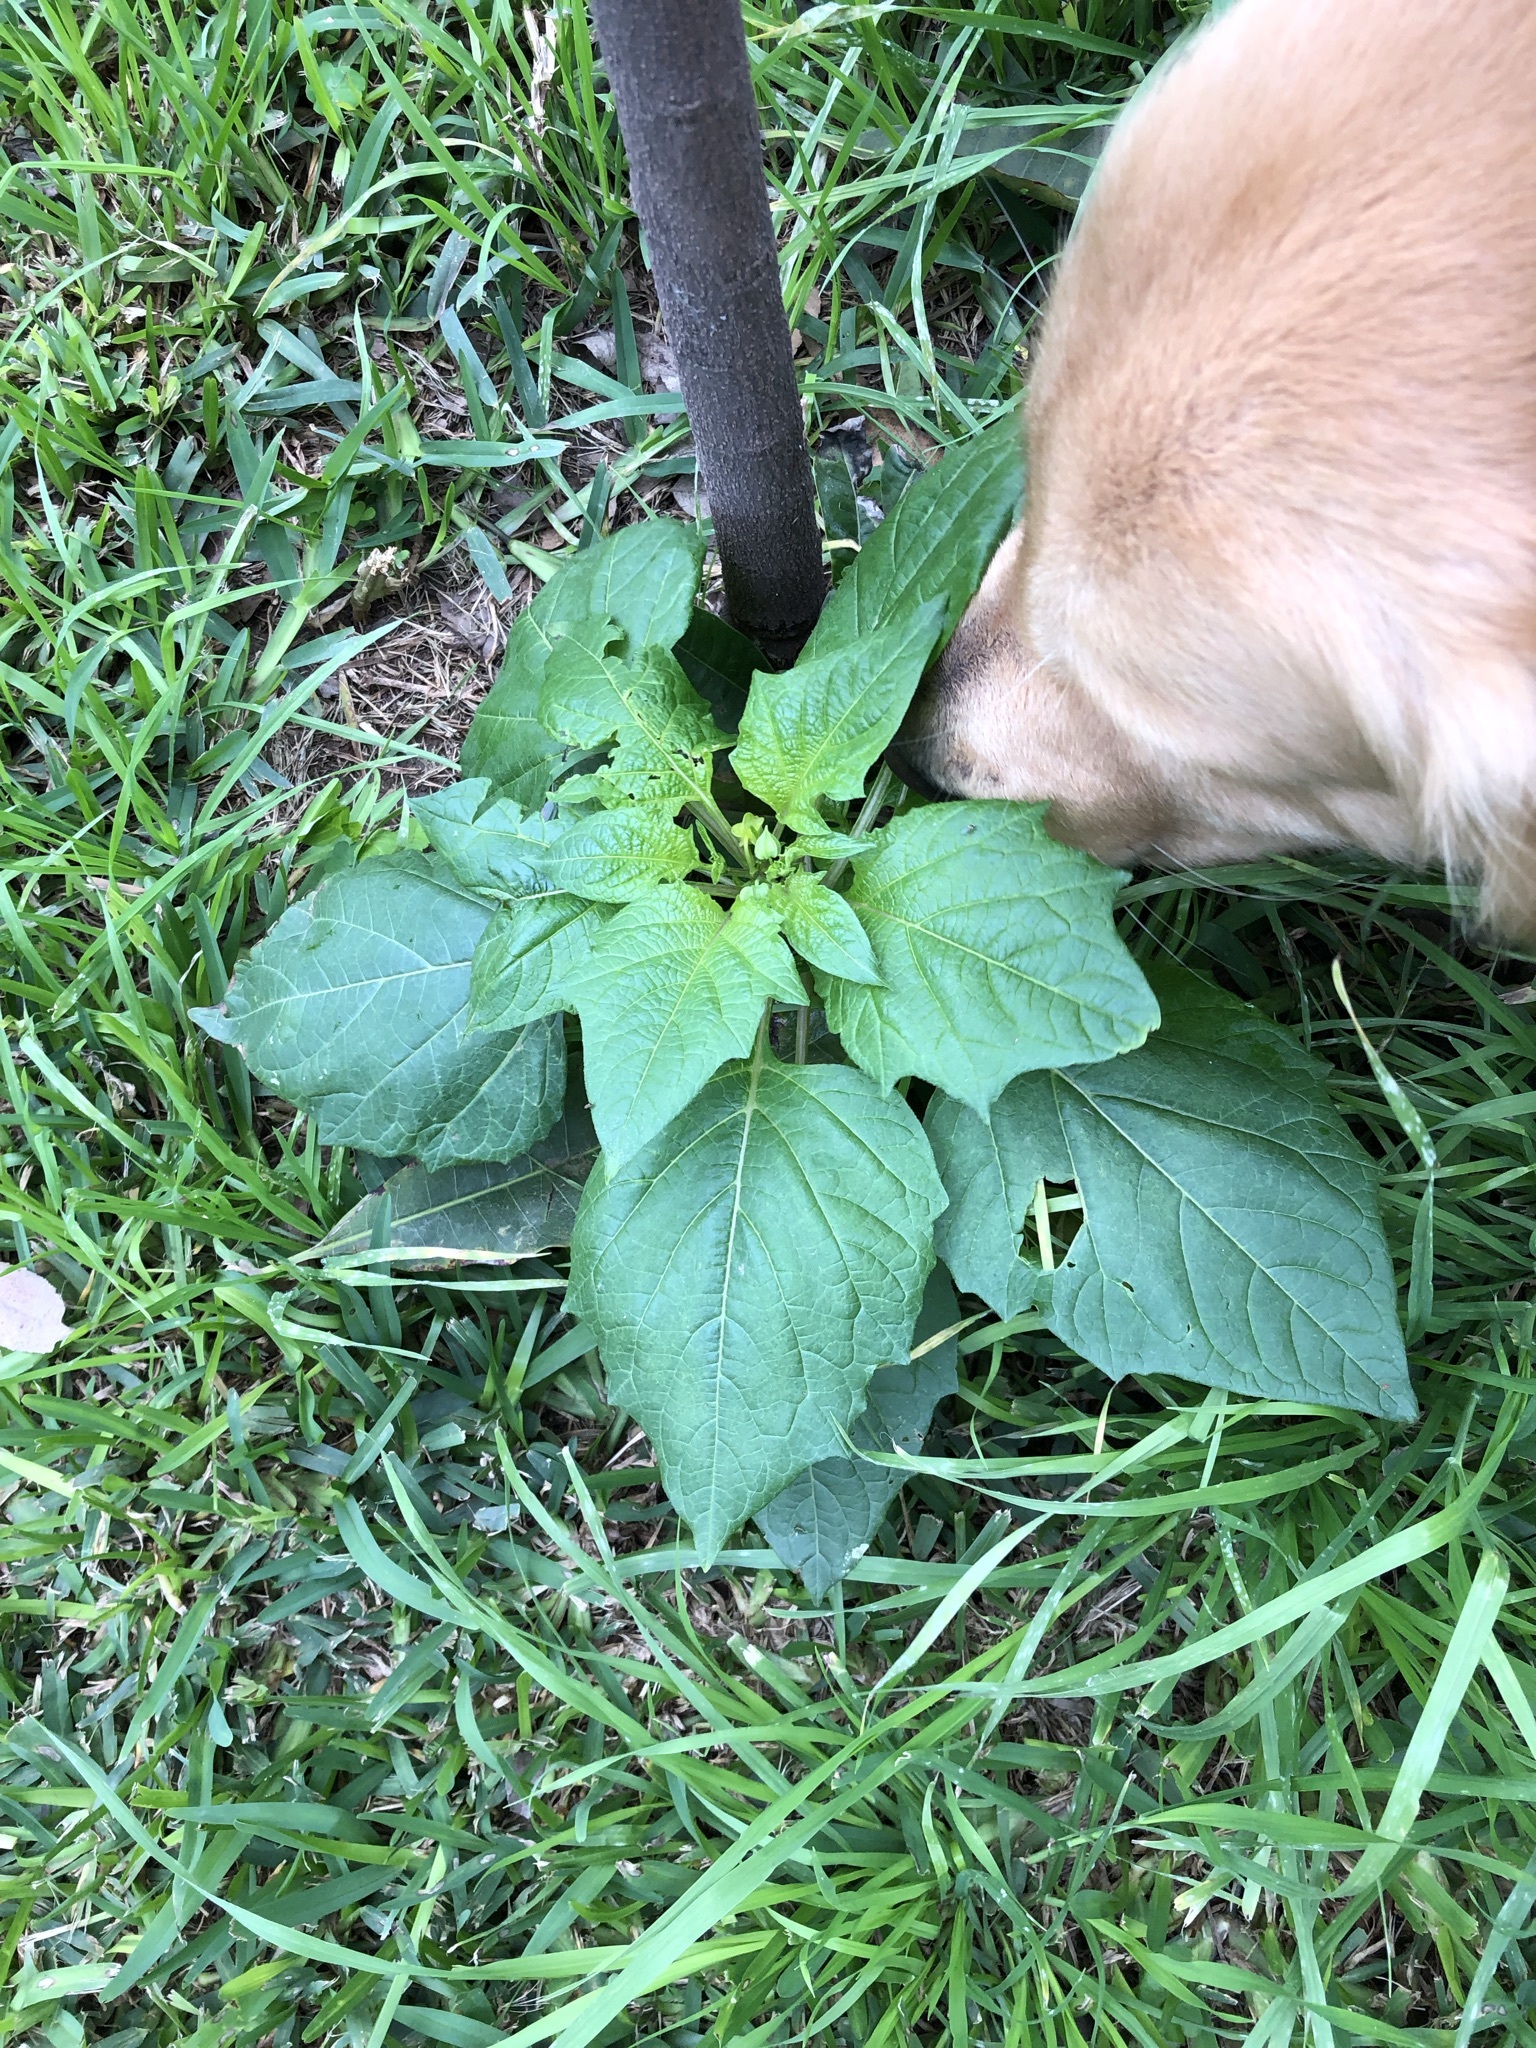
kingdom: Plantae
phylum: Tracheophyta
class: Magnoliopsida
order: Solanales
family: Solanaceae
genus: Nicandra
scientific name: Nicandra physalodes
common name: Apple-of-peru
